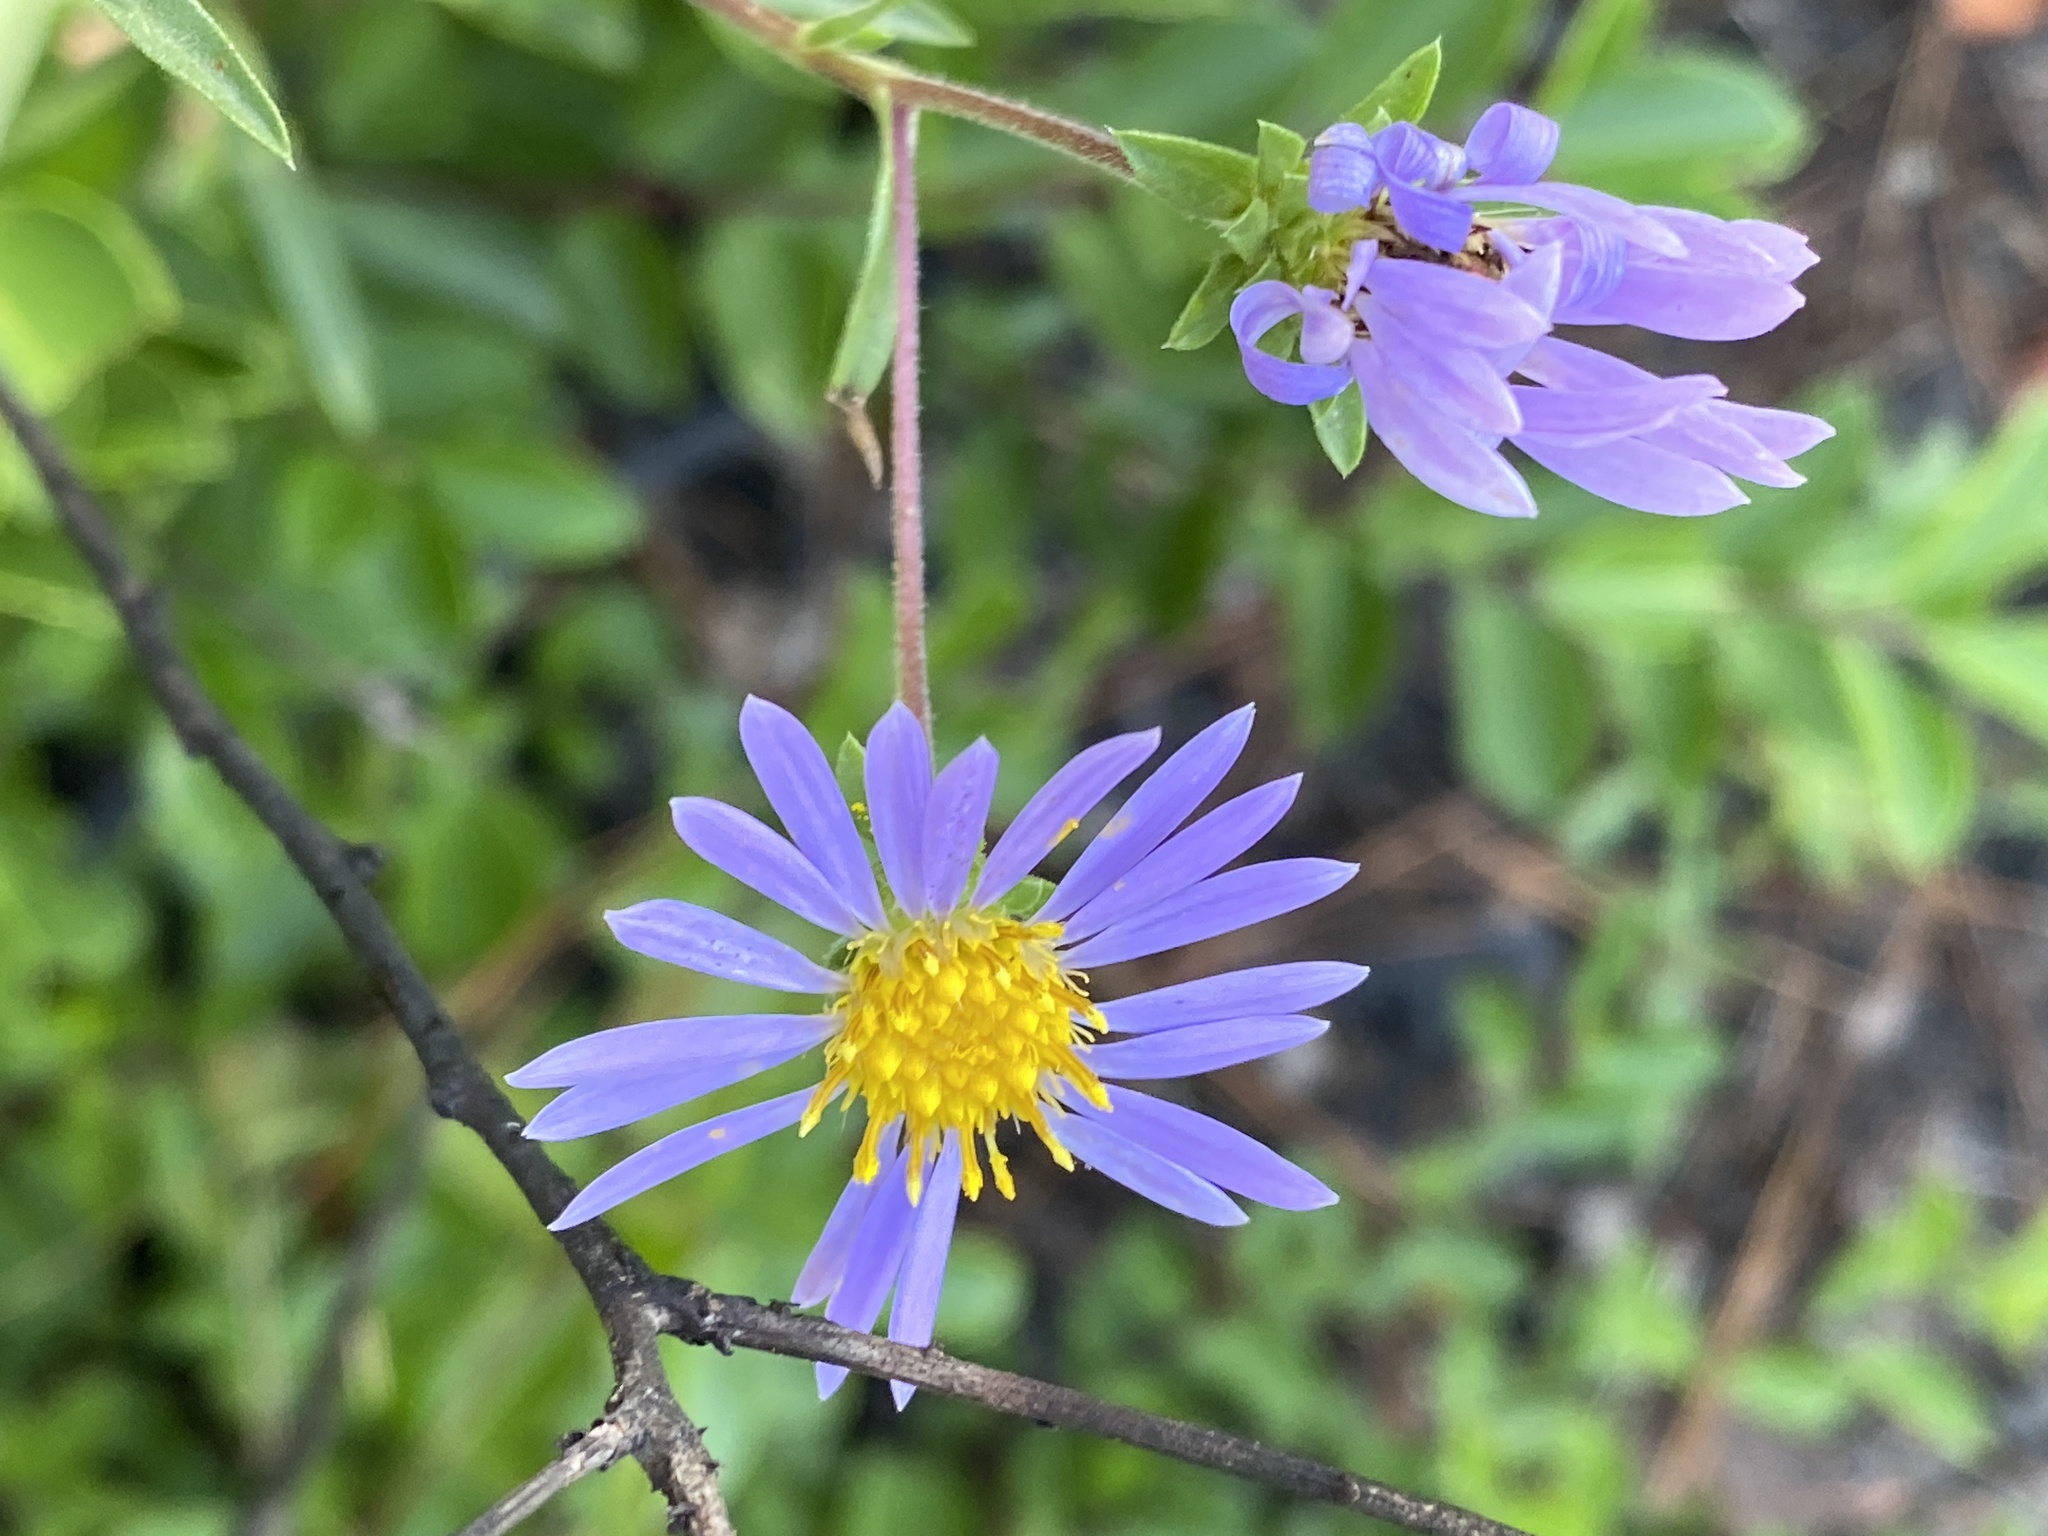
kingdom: Plantae
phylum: Tracheophyta
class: Magnoliopsida
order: Asterales
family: Asteraceae
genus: Eurybia
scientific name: Eurybia paludosa
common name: Southern swamp aster
